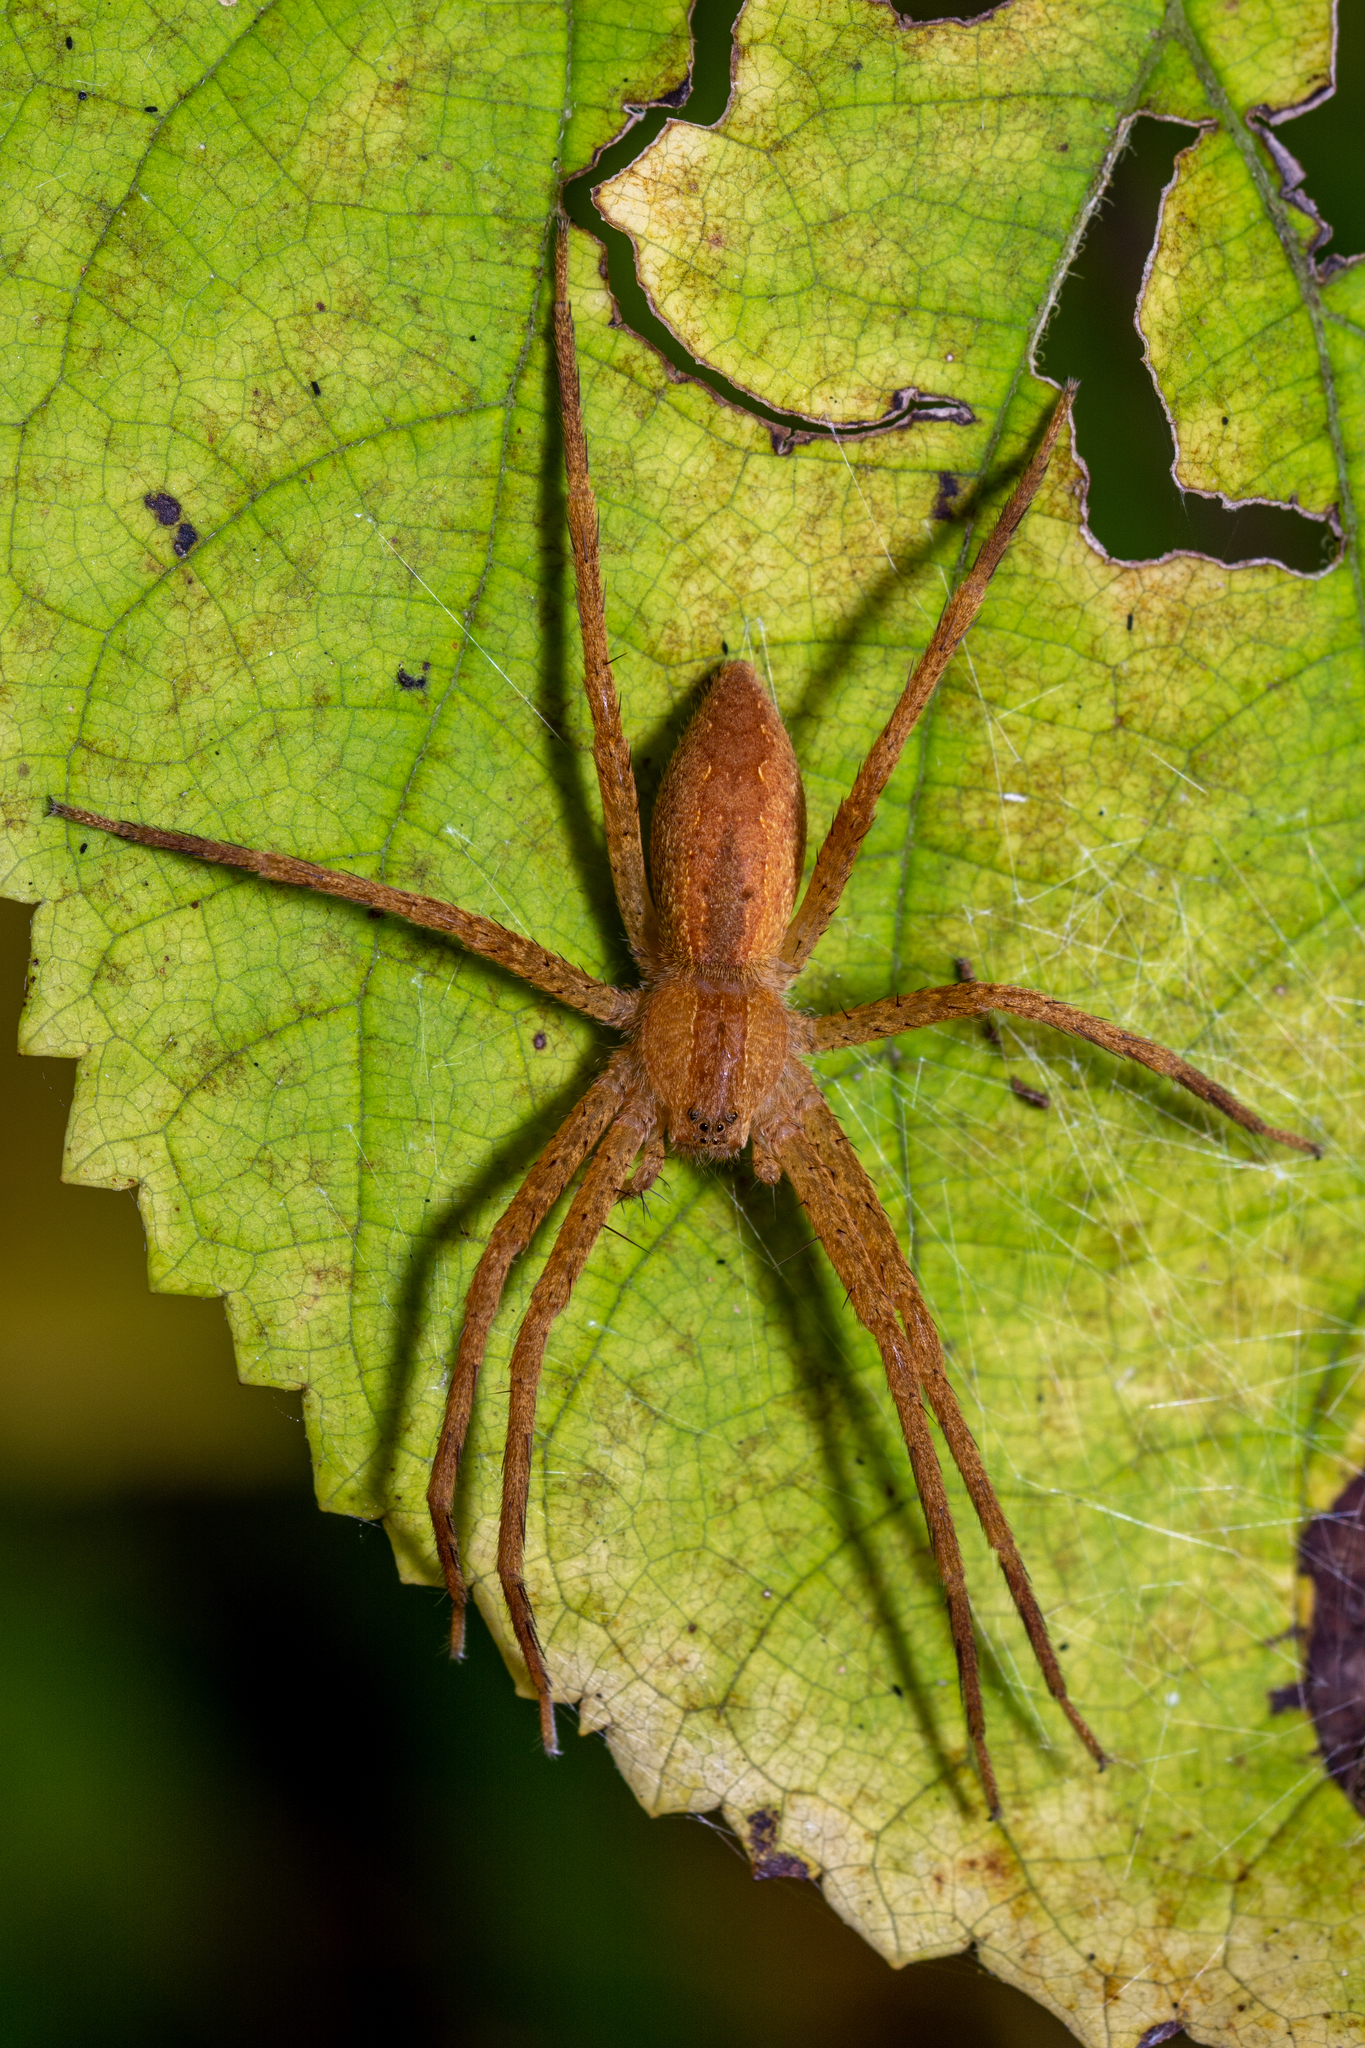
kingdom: Animalia
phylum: Arthropoda
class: Arachnida
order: Araneae
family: Pisauridae
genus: Pisaurina
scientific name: Pisaurina mira
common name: American nursery web spider
